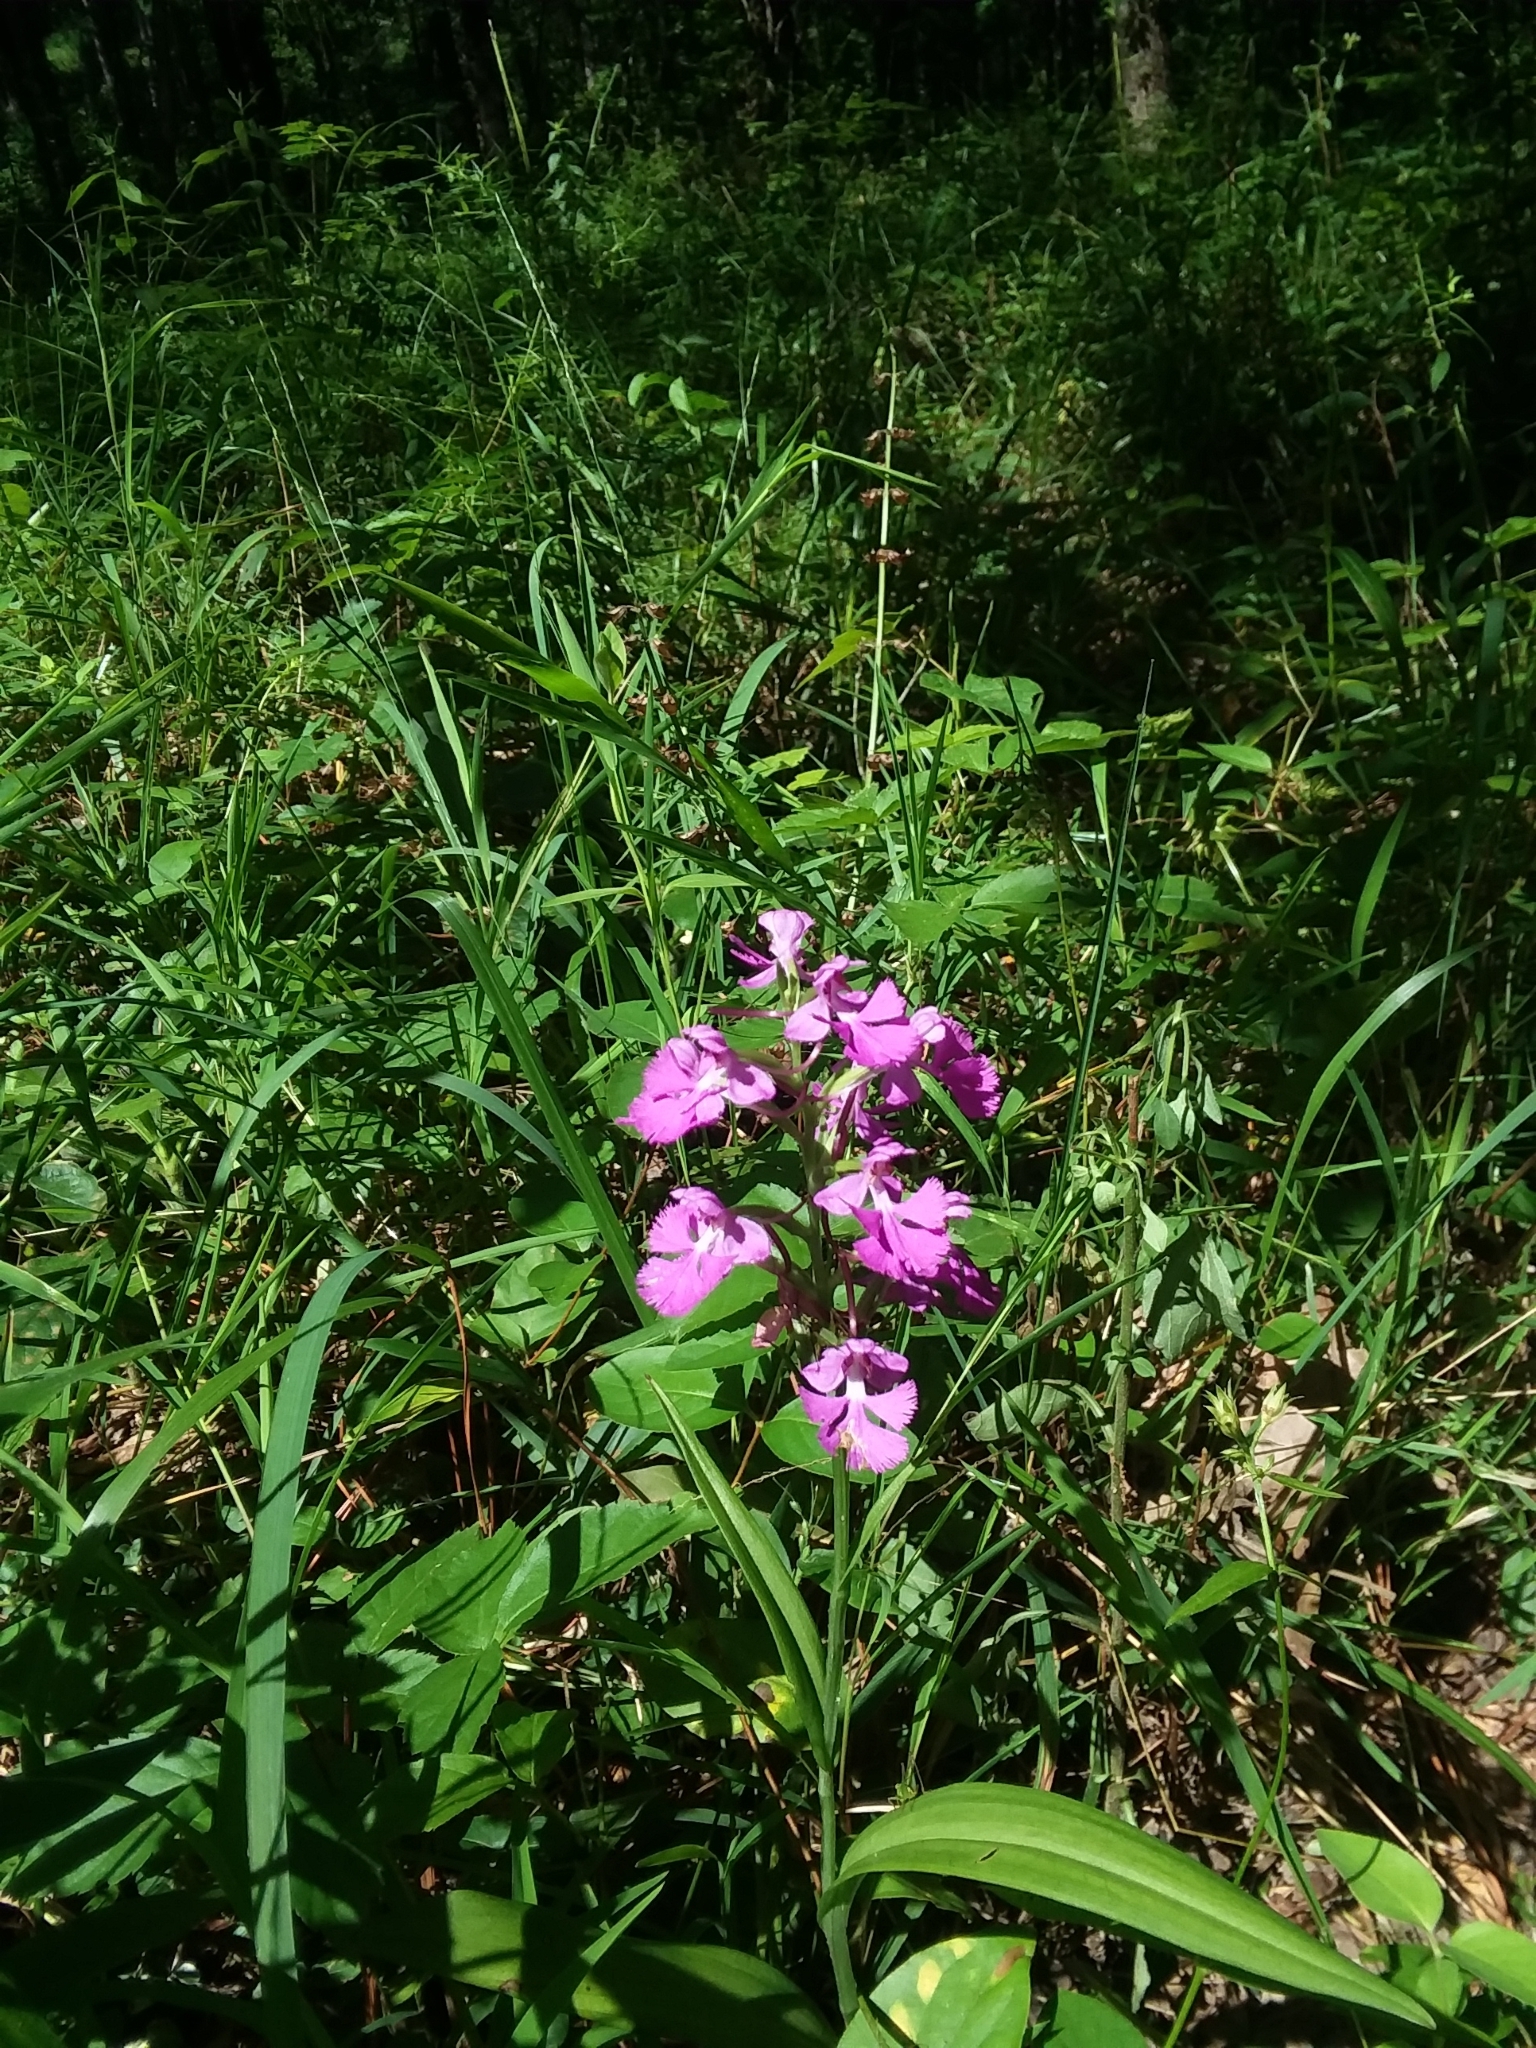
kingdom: Plantae
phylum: Tracheophyta
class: Liliopsida
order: Asparagales
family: Orchidaceae
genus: Platanthera
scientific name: Platanthera peramoena
